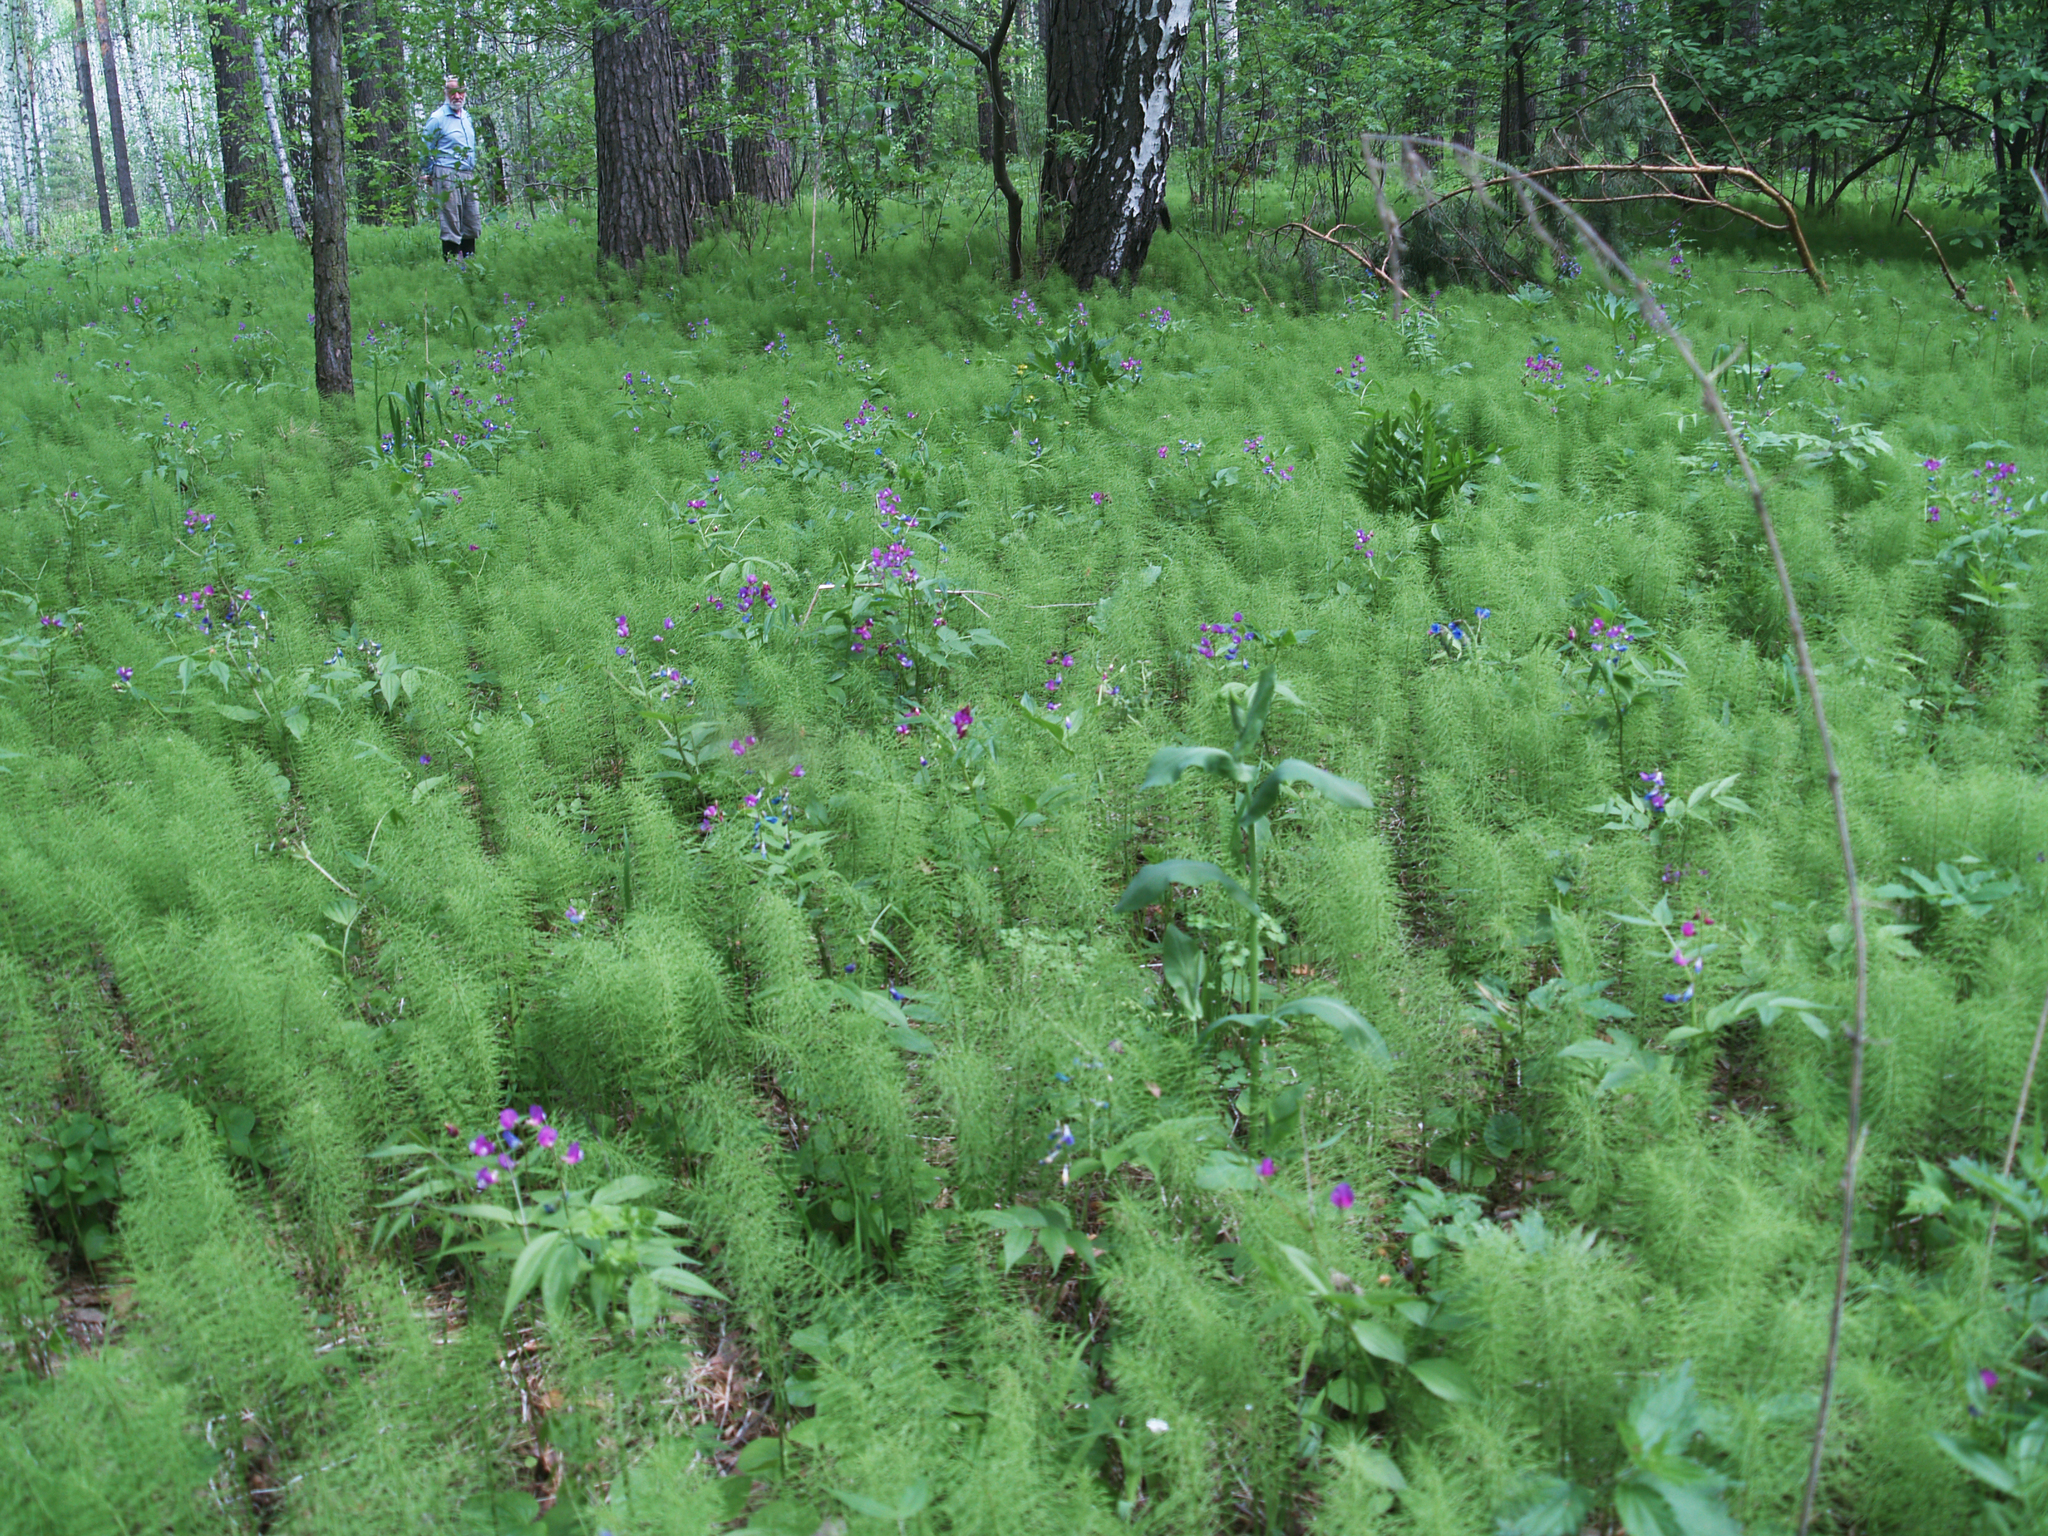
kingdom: Plantae
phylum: Tracheophyta
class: Polypodiopsida
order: Equisetales
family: Equisetaceae
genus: Equisetum
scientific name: Equisetum pratense
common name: Meadow horsetail
